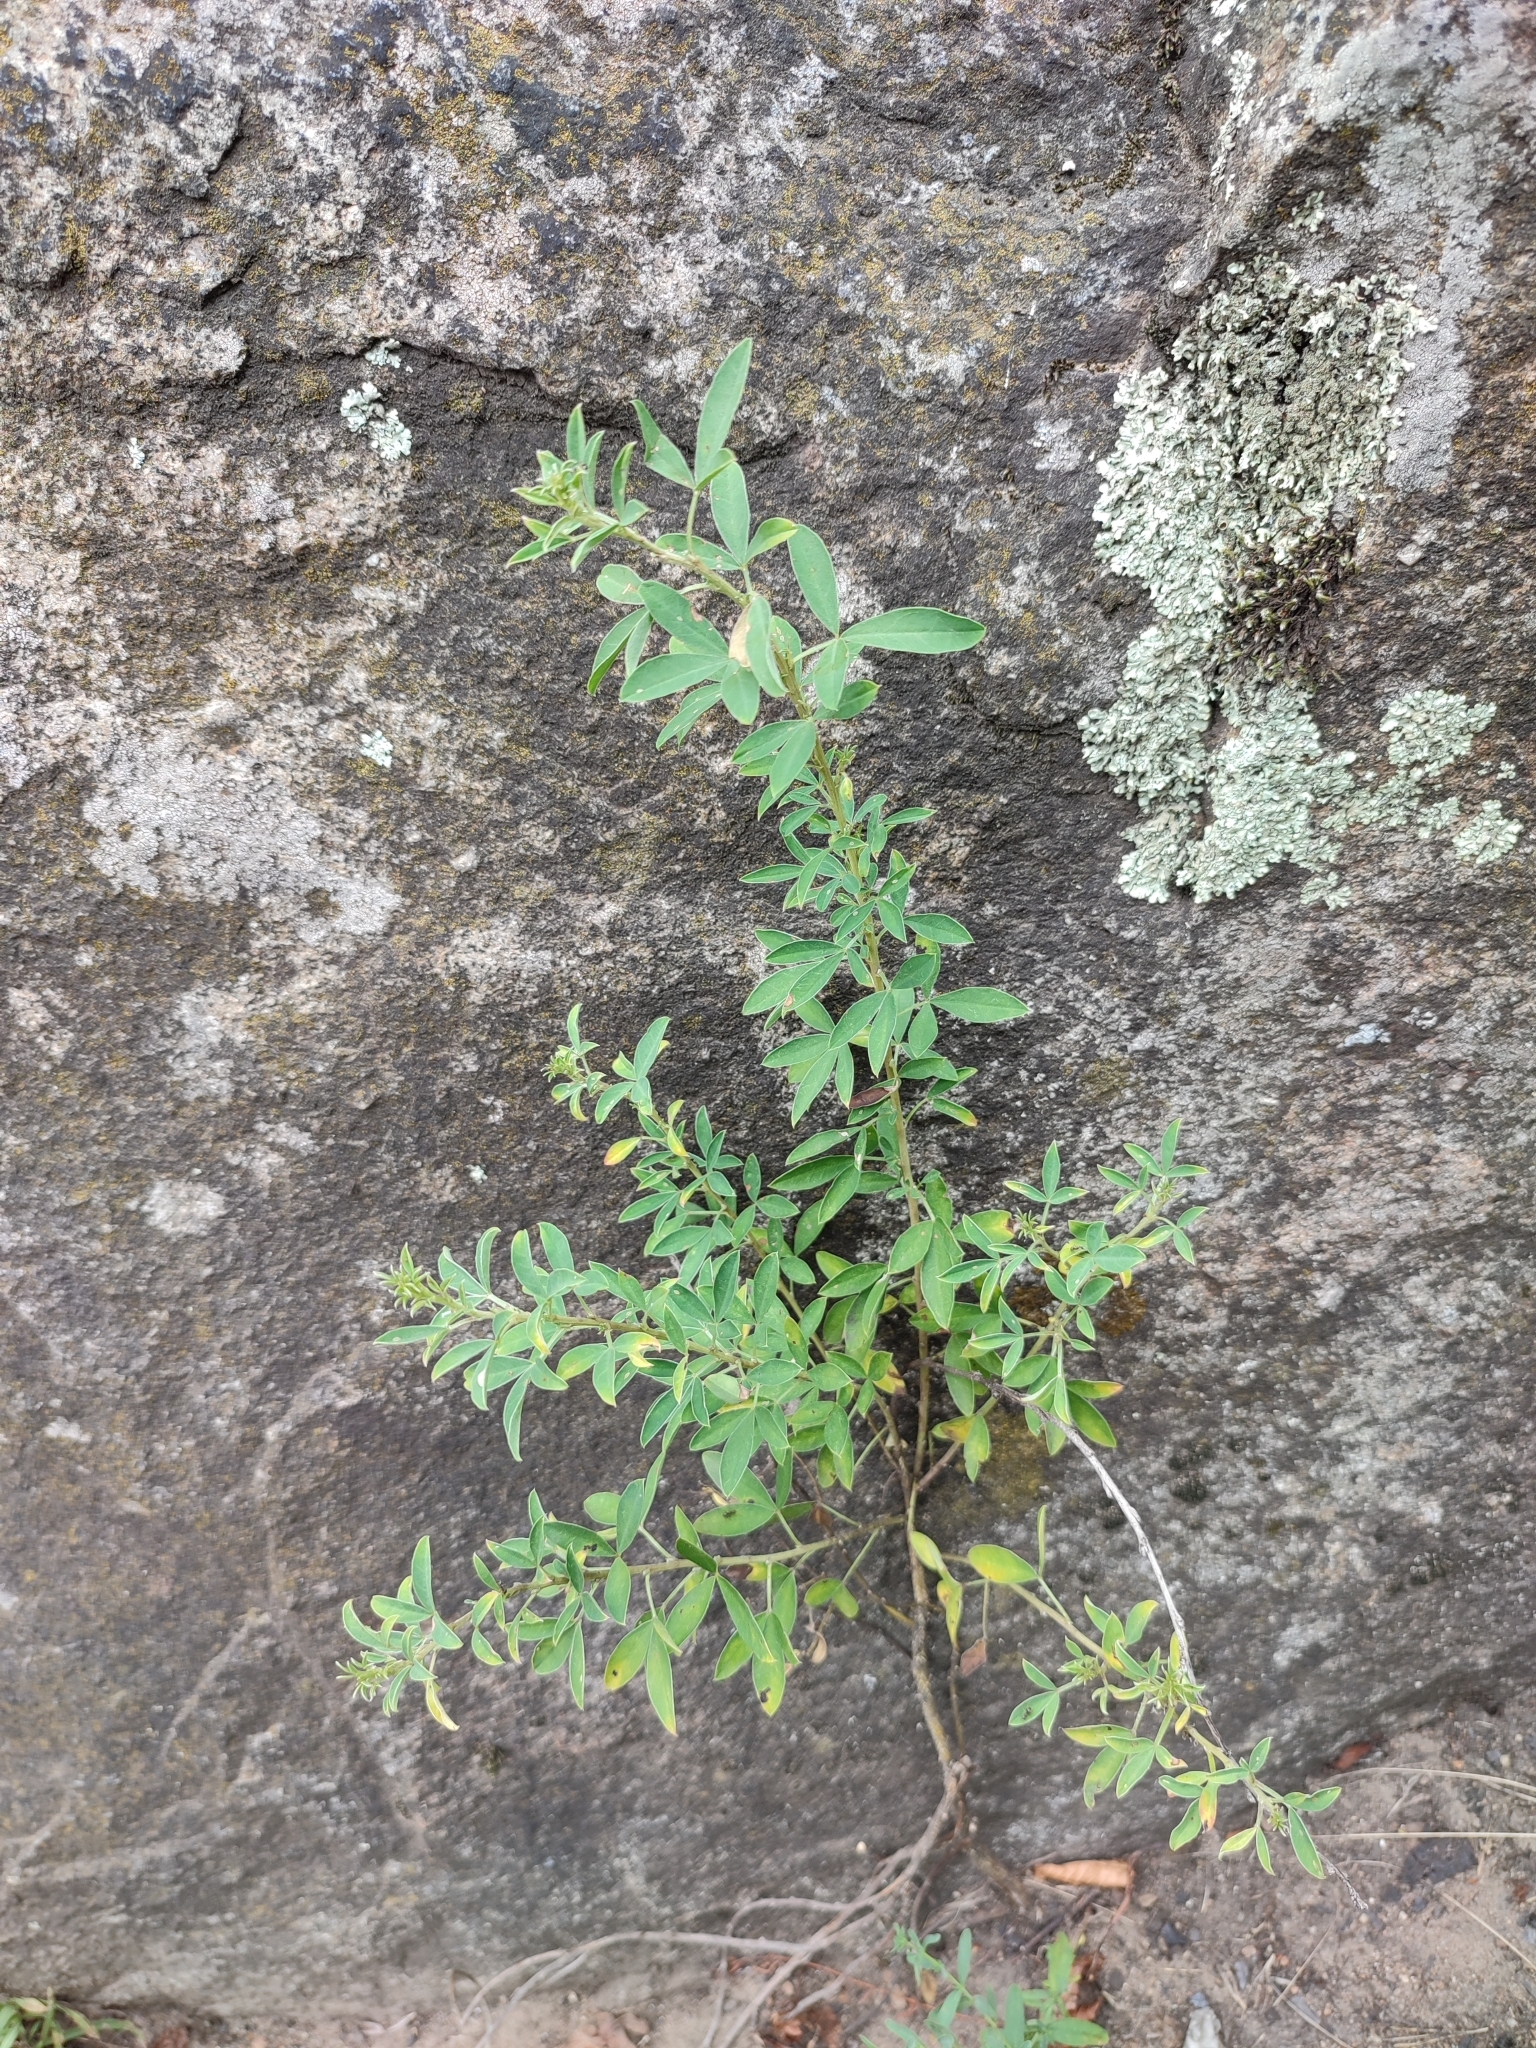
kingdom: Plantae
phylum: Tracheophyta
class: Magnoliopsida
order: Fabales
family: Fabaceae
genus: Chamaecytisus
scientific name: Chamaecytisus ruthenicus
